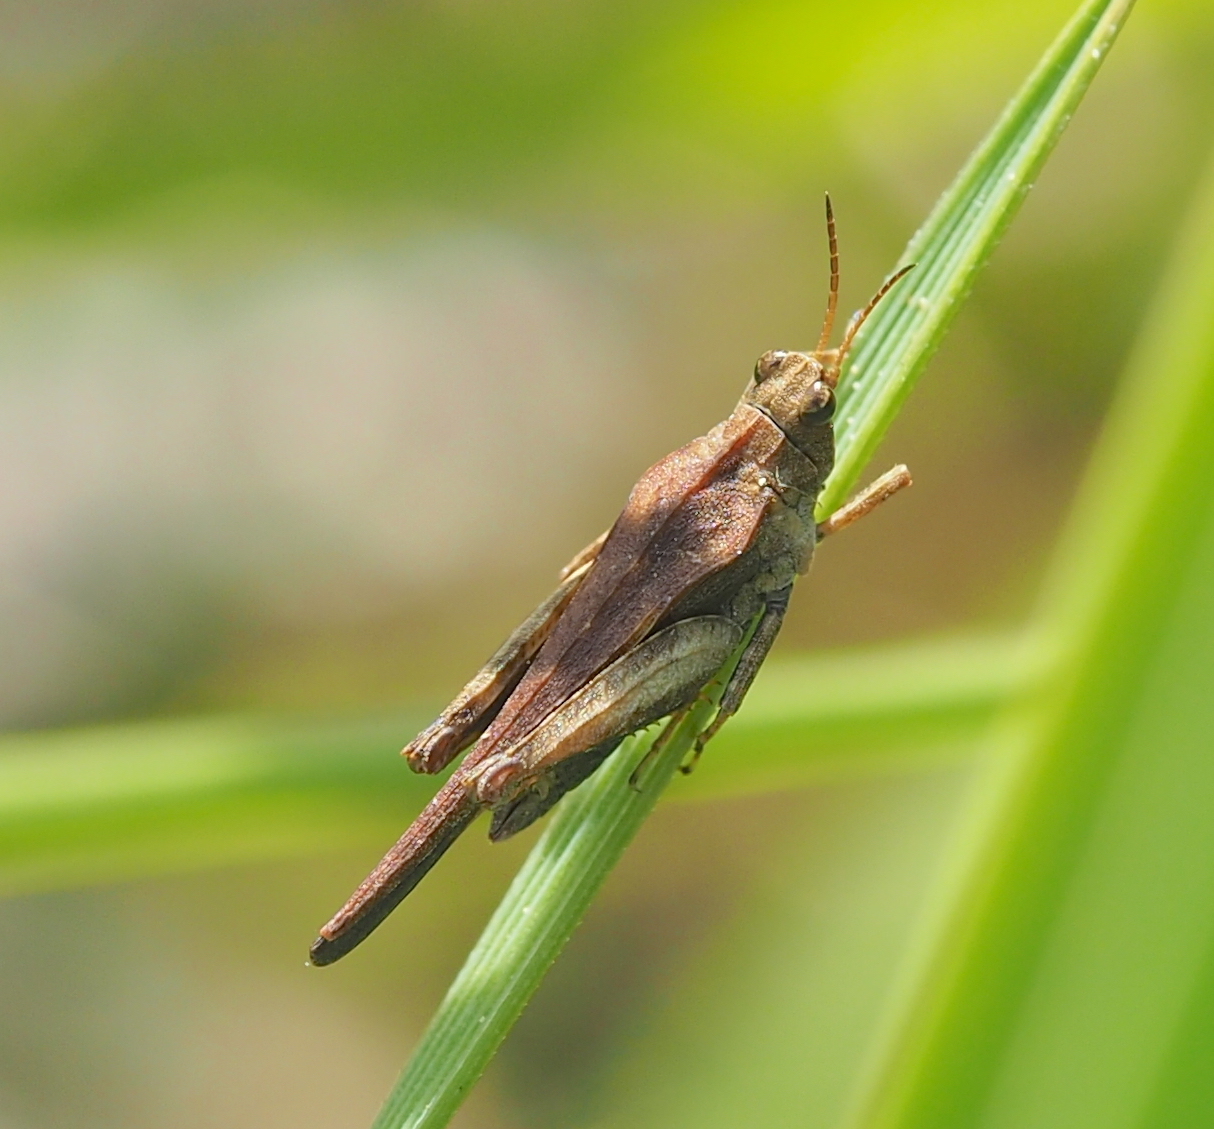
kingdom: Animalia
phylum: Arthropoda
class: Insecta
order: Orthoptera
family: Tetrigidae
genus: Tetrix
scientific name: Tetrix subulata
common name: Slender ground-hopper
